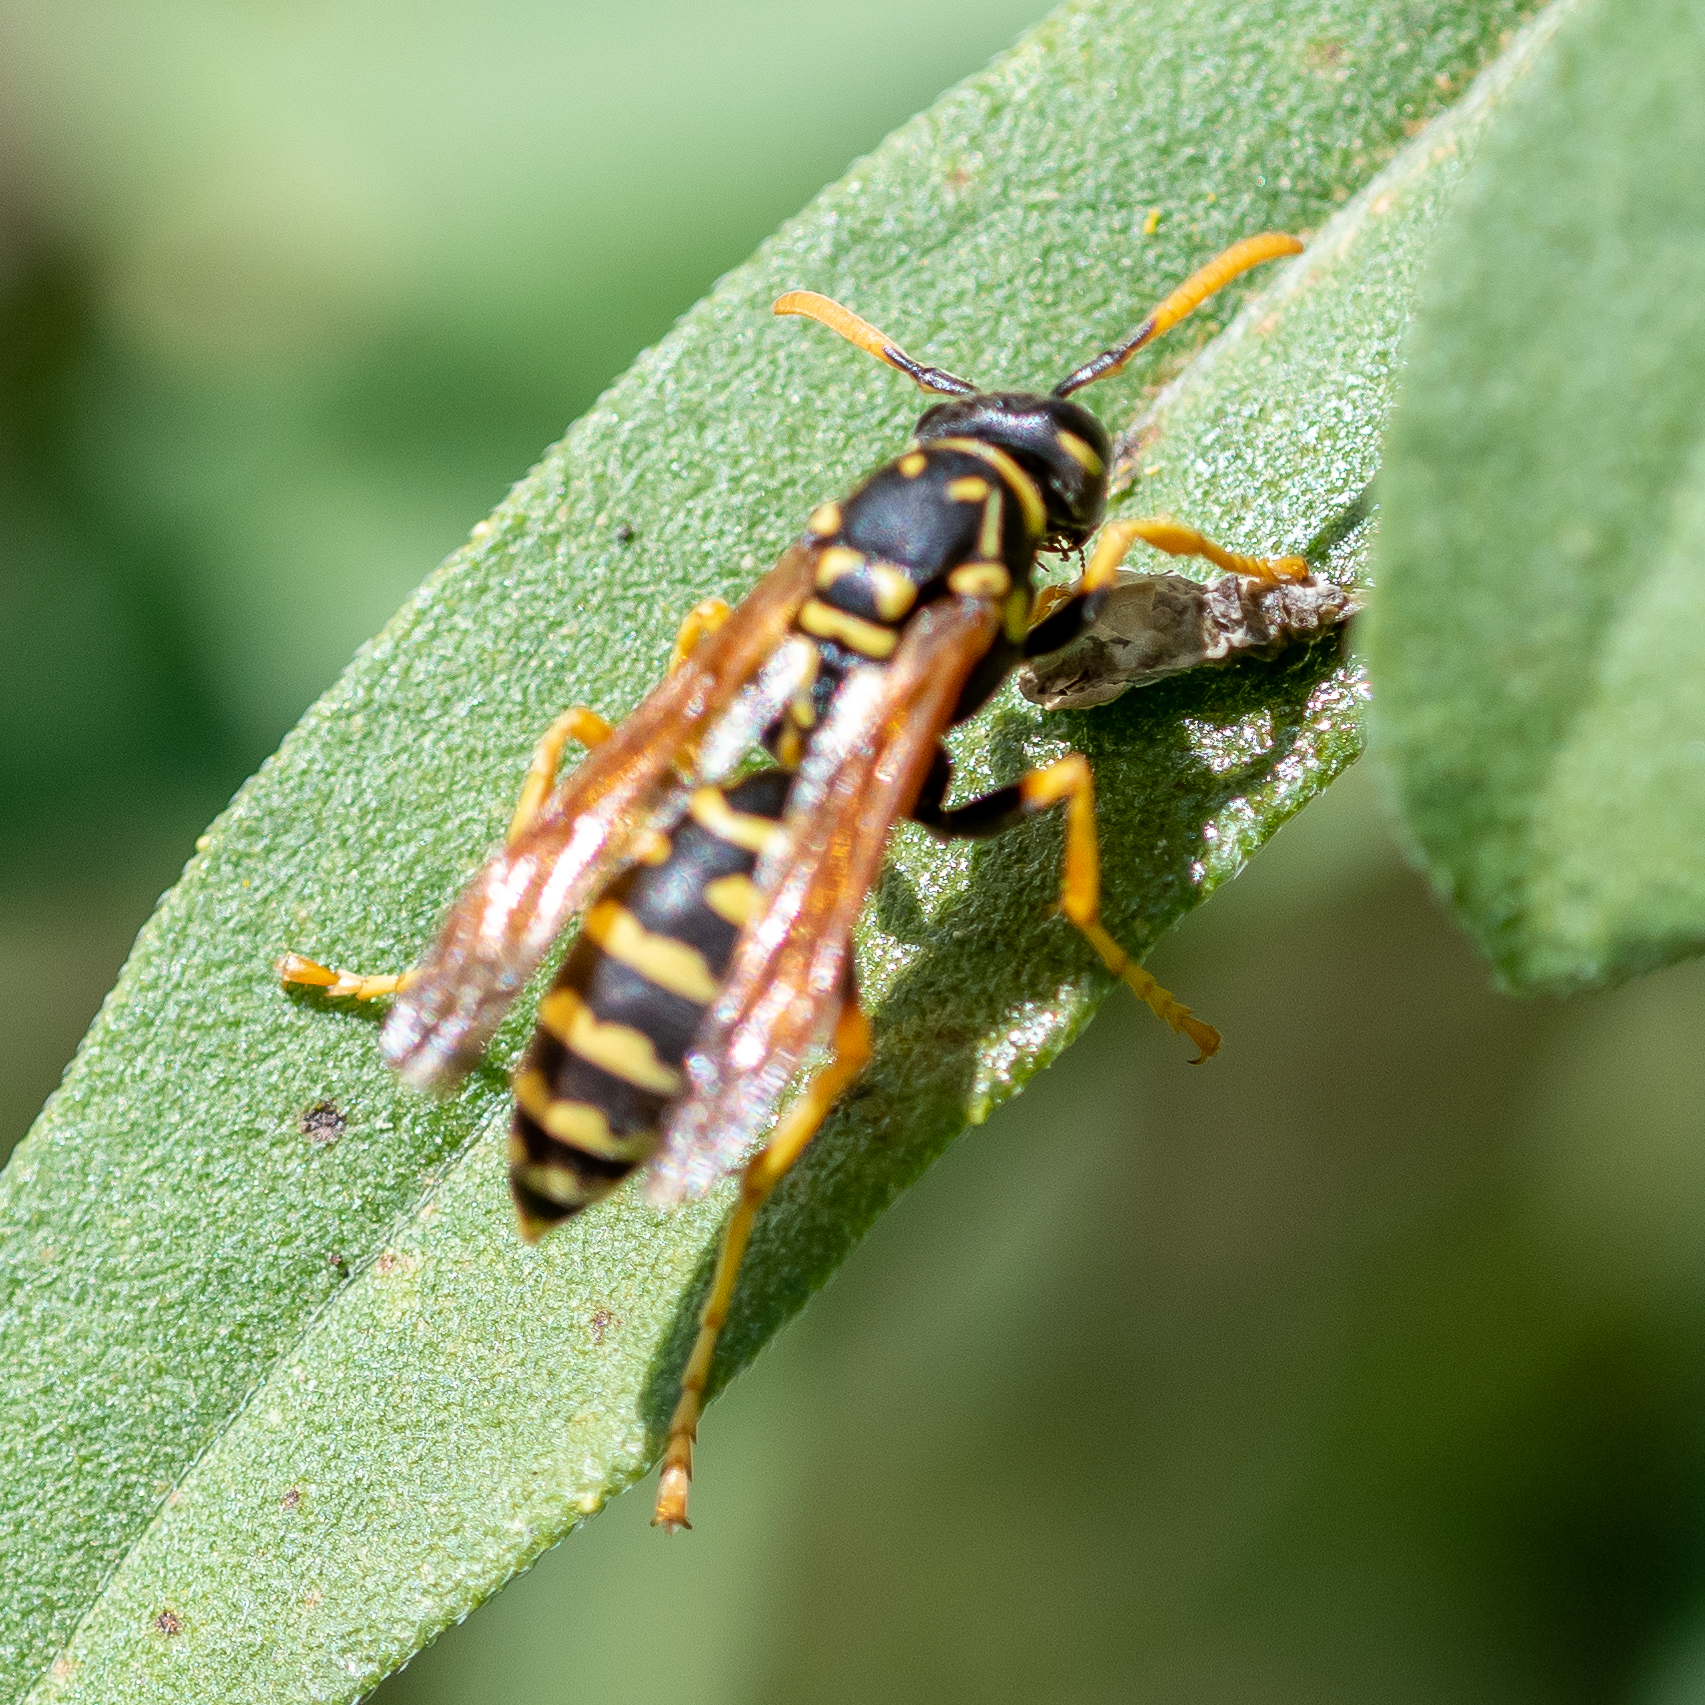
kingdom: Animalia
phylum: Arthropoda
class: Insecta
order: Hymenoptera
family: Eumenidae
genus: Polistes
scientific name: Polistes dominula
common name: Paper wasp
